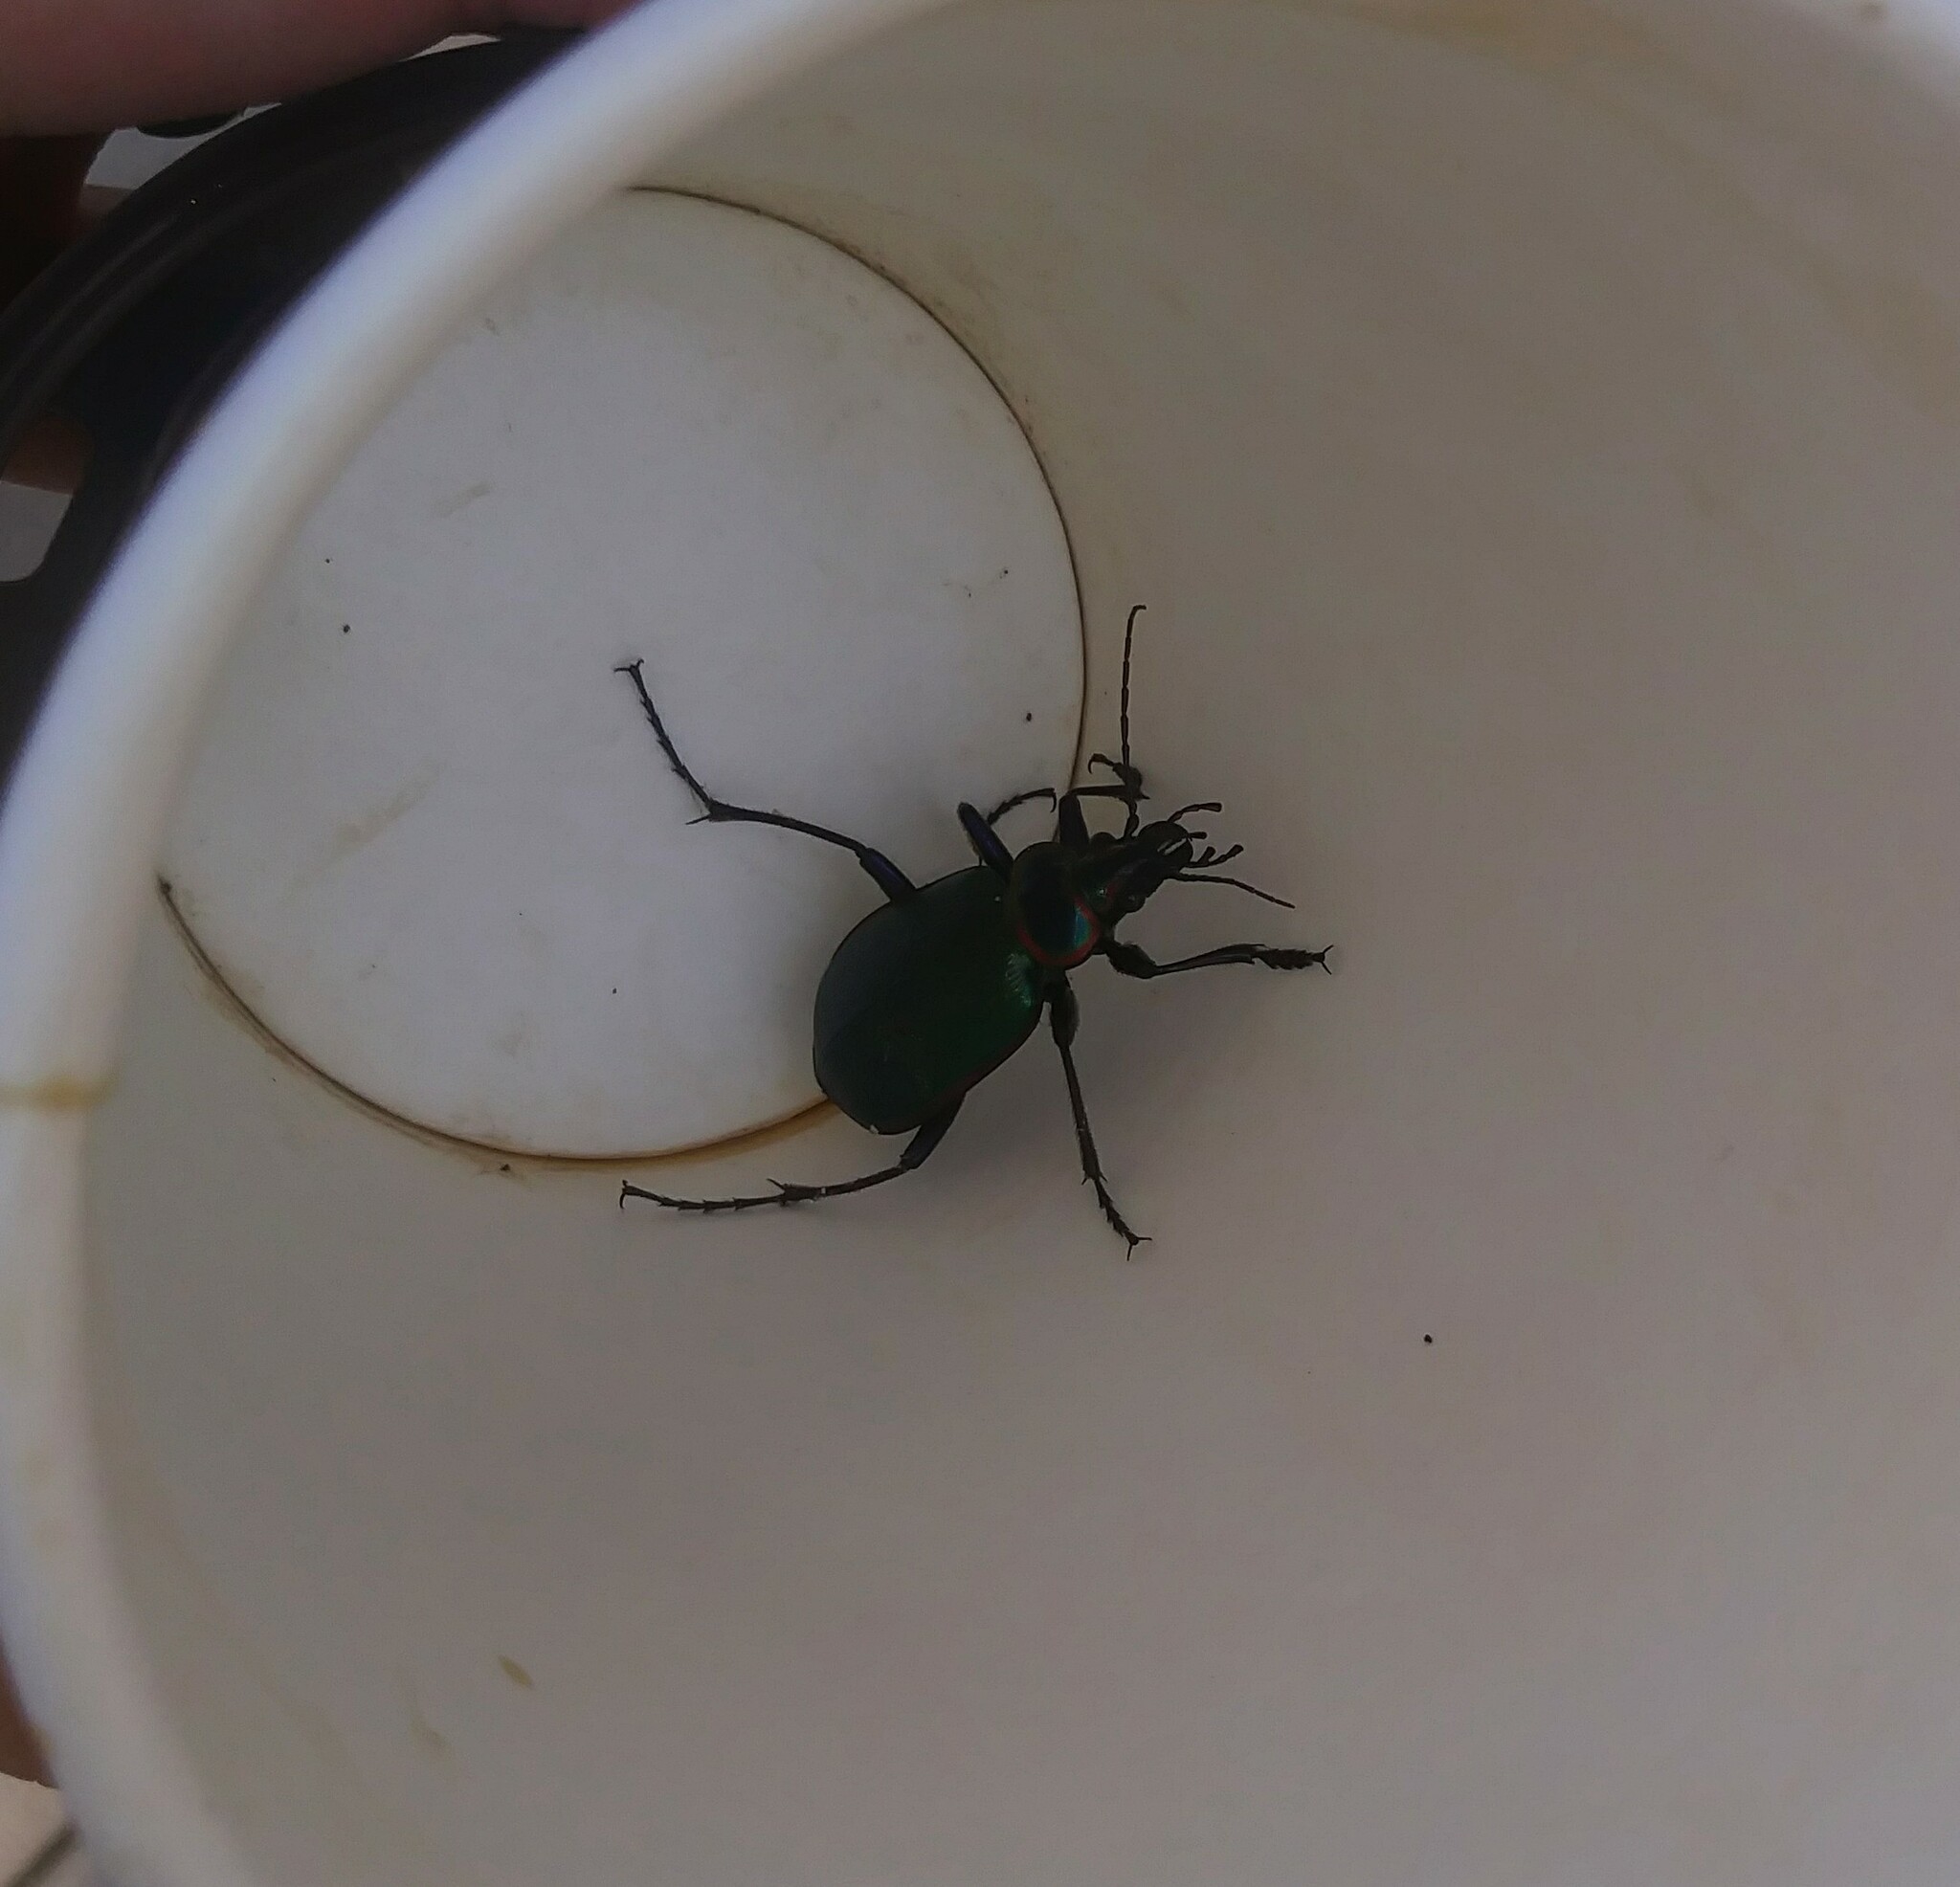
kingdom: Animalia
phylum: Arthropoda
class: Insecta
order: Coleoptera
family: Carabidae
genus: Calosoma
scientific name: Calosoma scrutator
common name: Fiery searcher beetle
